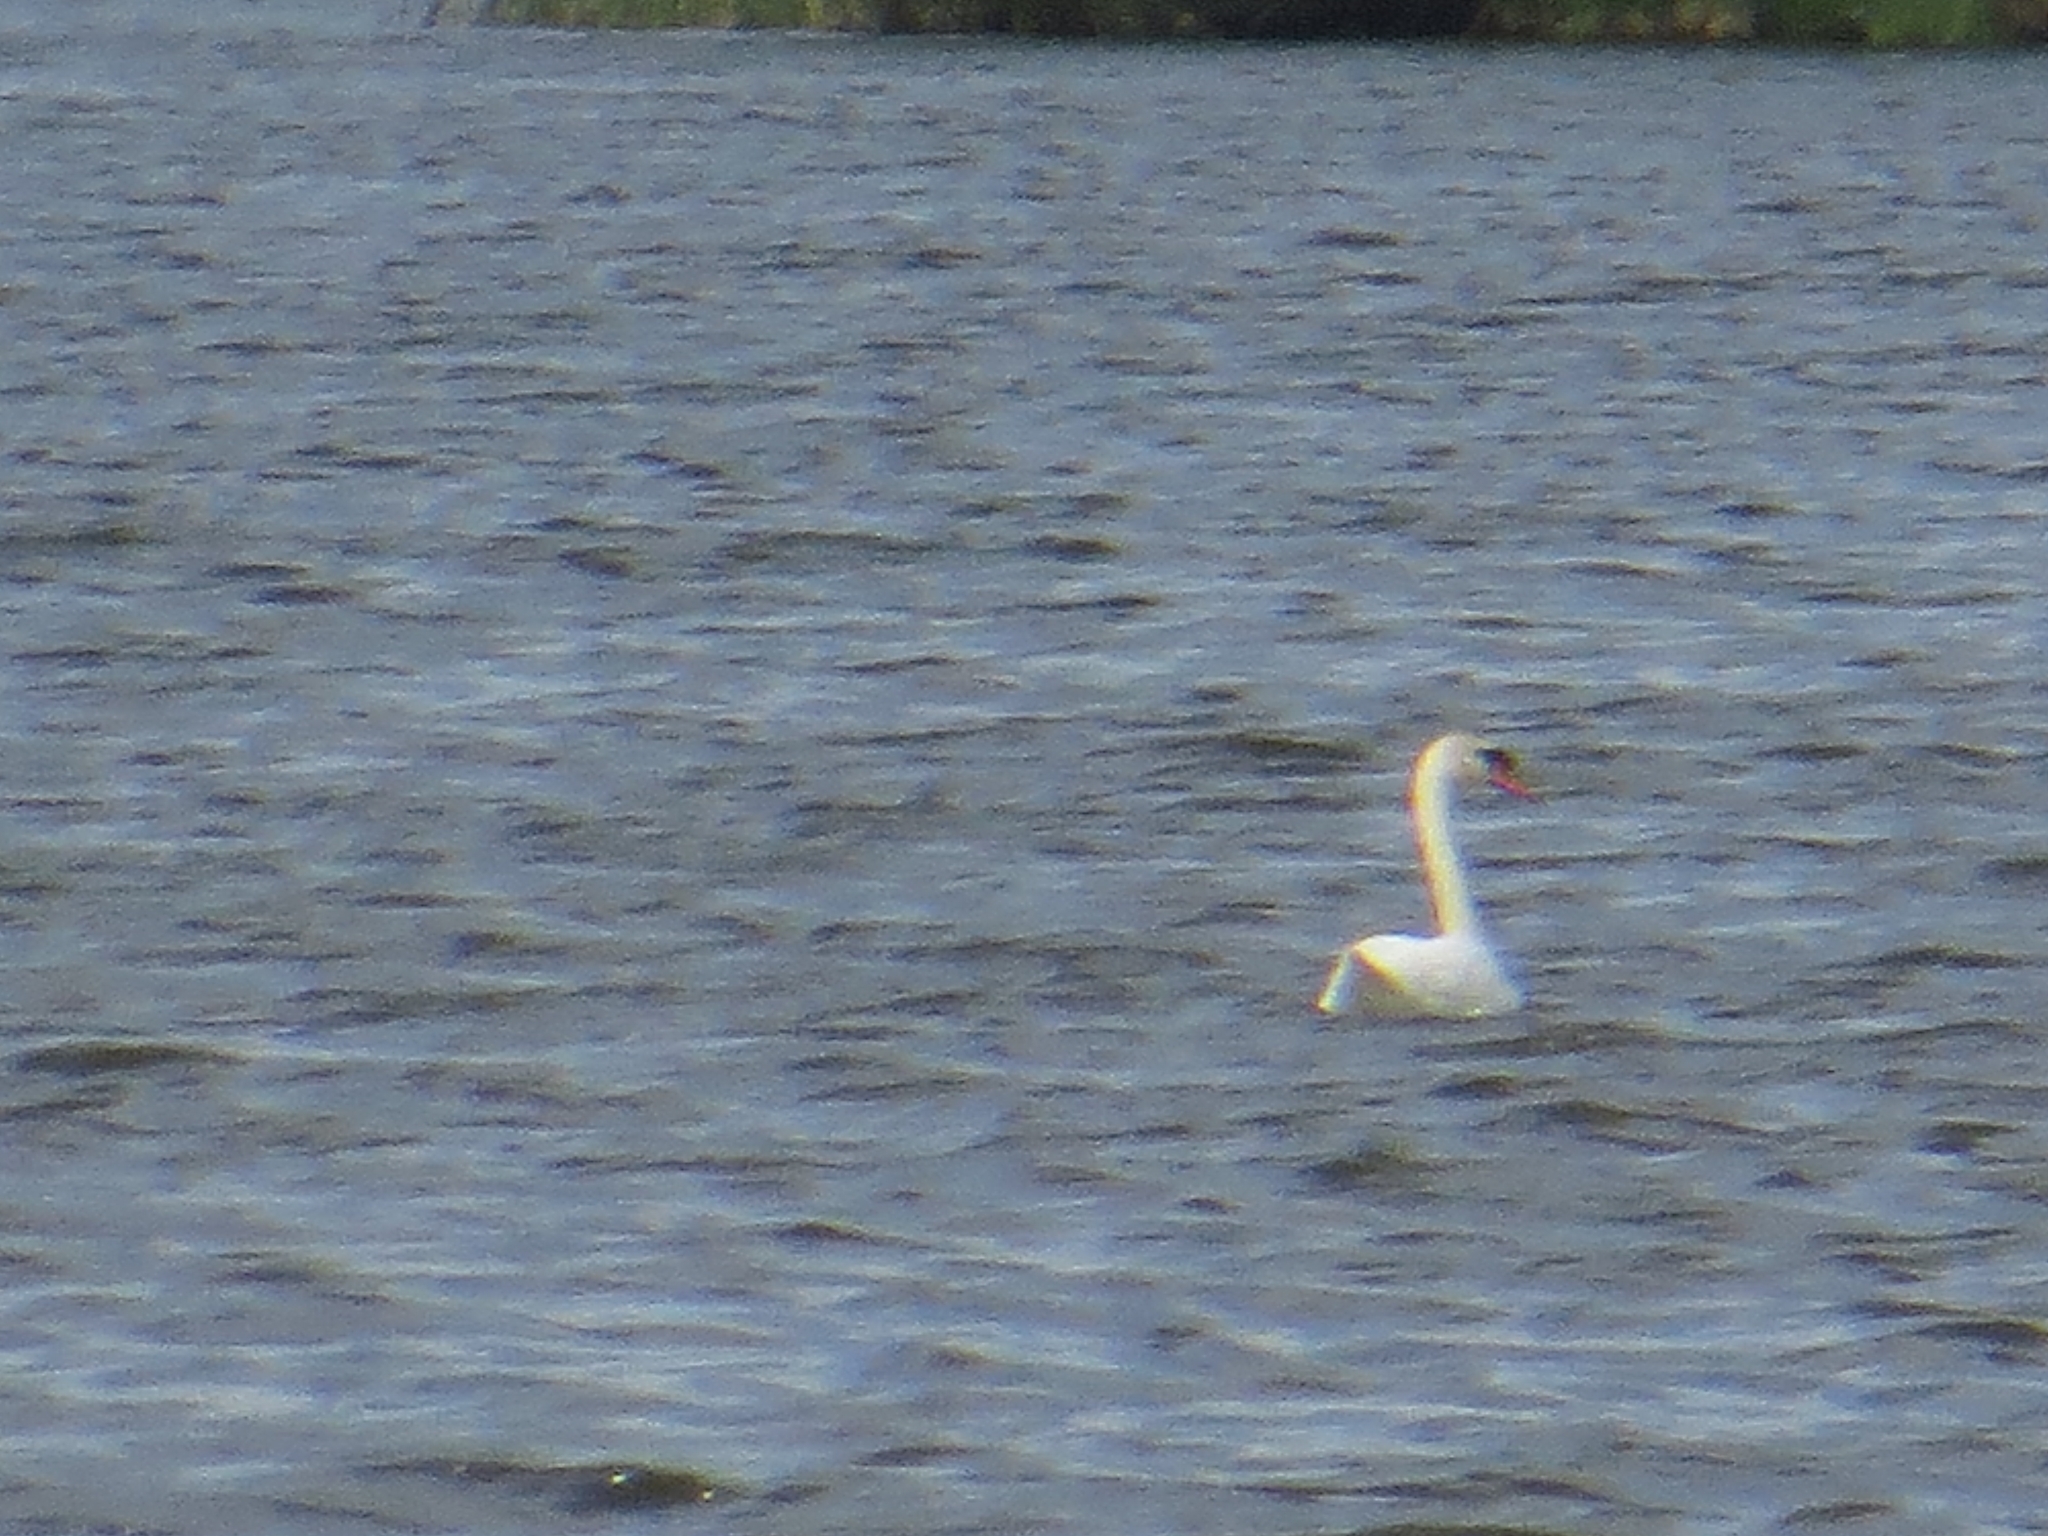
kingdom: Animalia
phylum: Chordata
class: Aves
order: Anseriformes
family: Anatidae
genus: Cygnus
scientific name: Cygnus olor
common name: Mute swan
